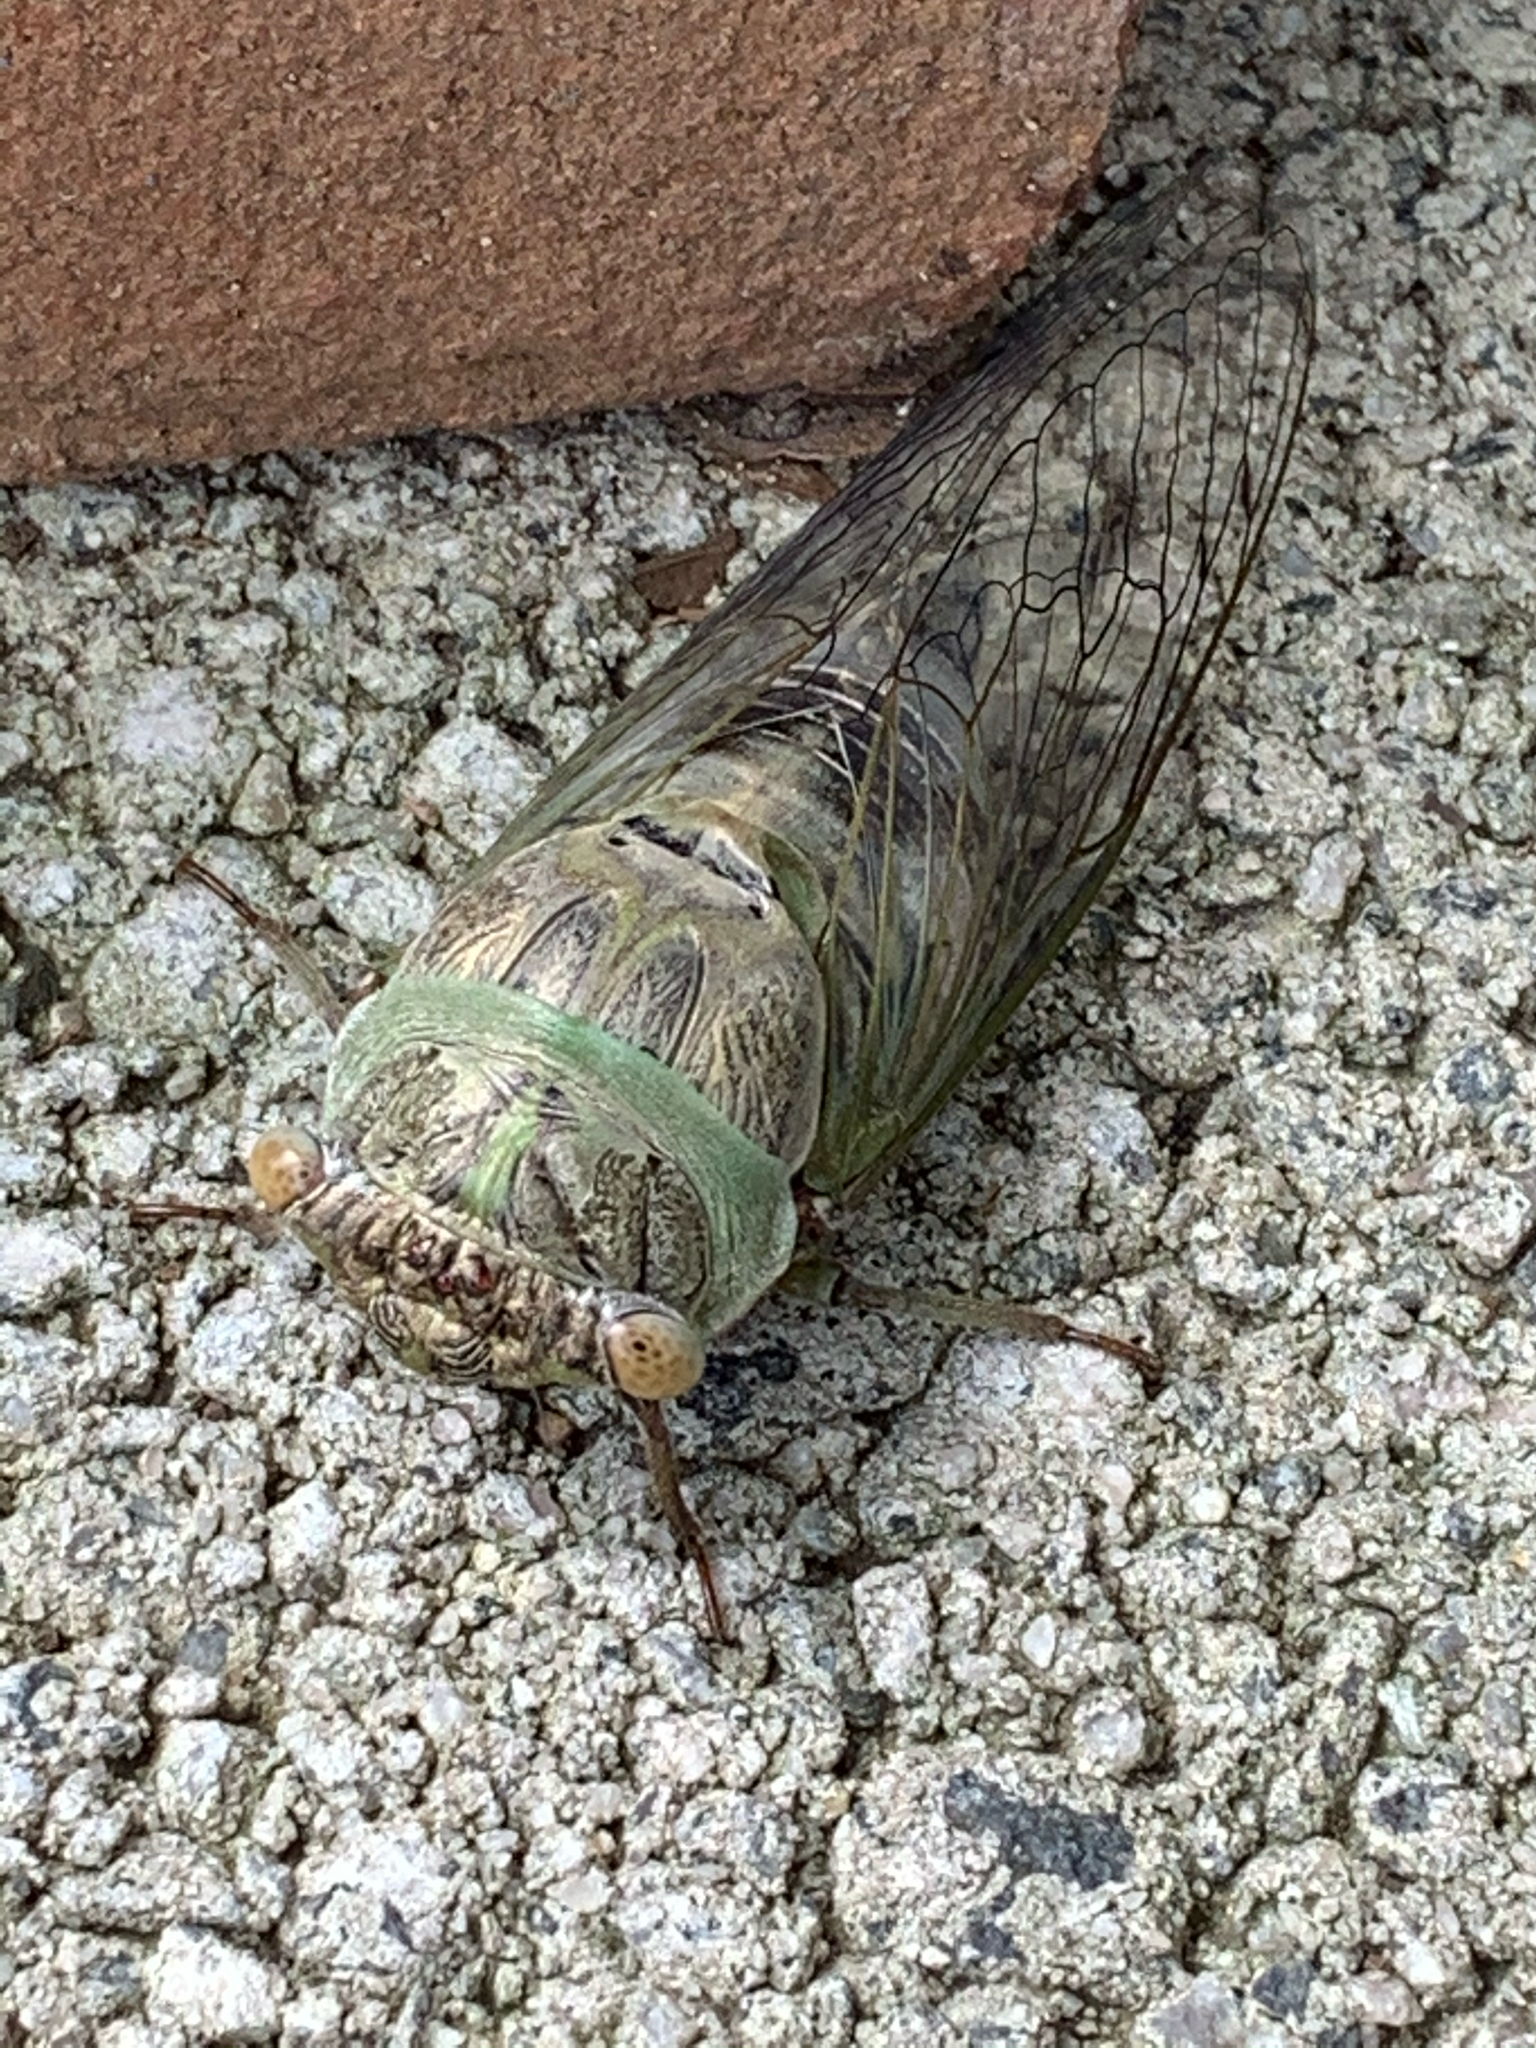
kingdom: Animalia
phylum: Arthropoda
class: Insecta
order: Hemiptera
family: Cicadidae
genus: Diceroprocta
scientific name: Diceroprocta grossa
